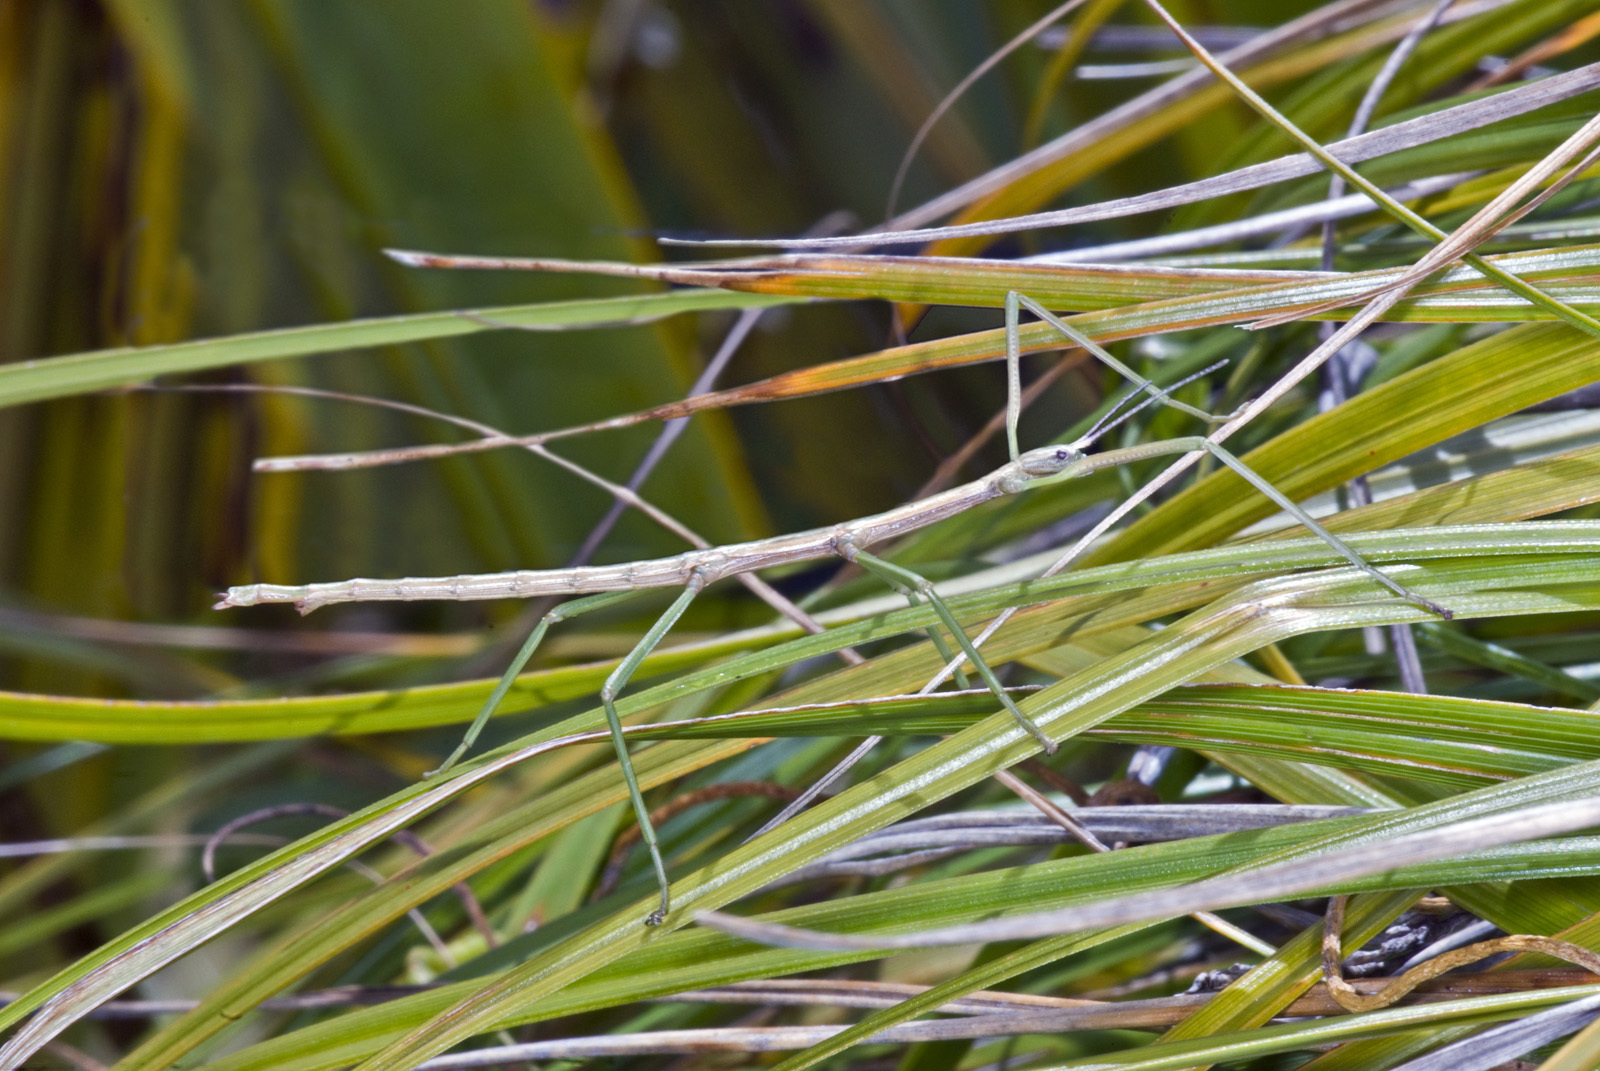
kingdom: Animalia
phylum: Arthropoda
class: Insecta
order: Phasmida
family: Phasmatidae
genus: Clitarchus
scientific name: Clitarchus tepaki
